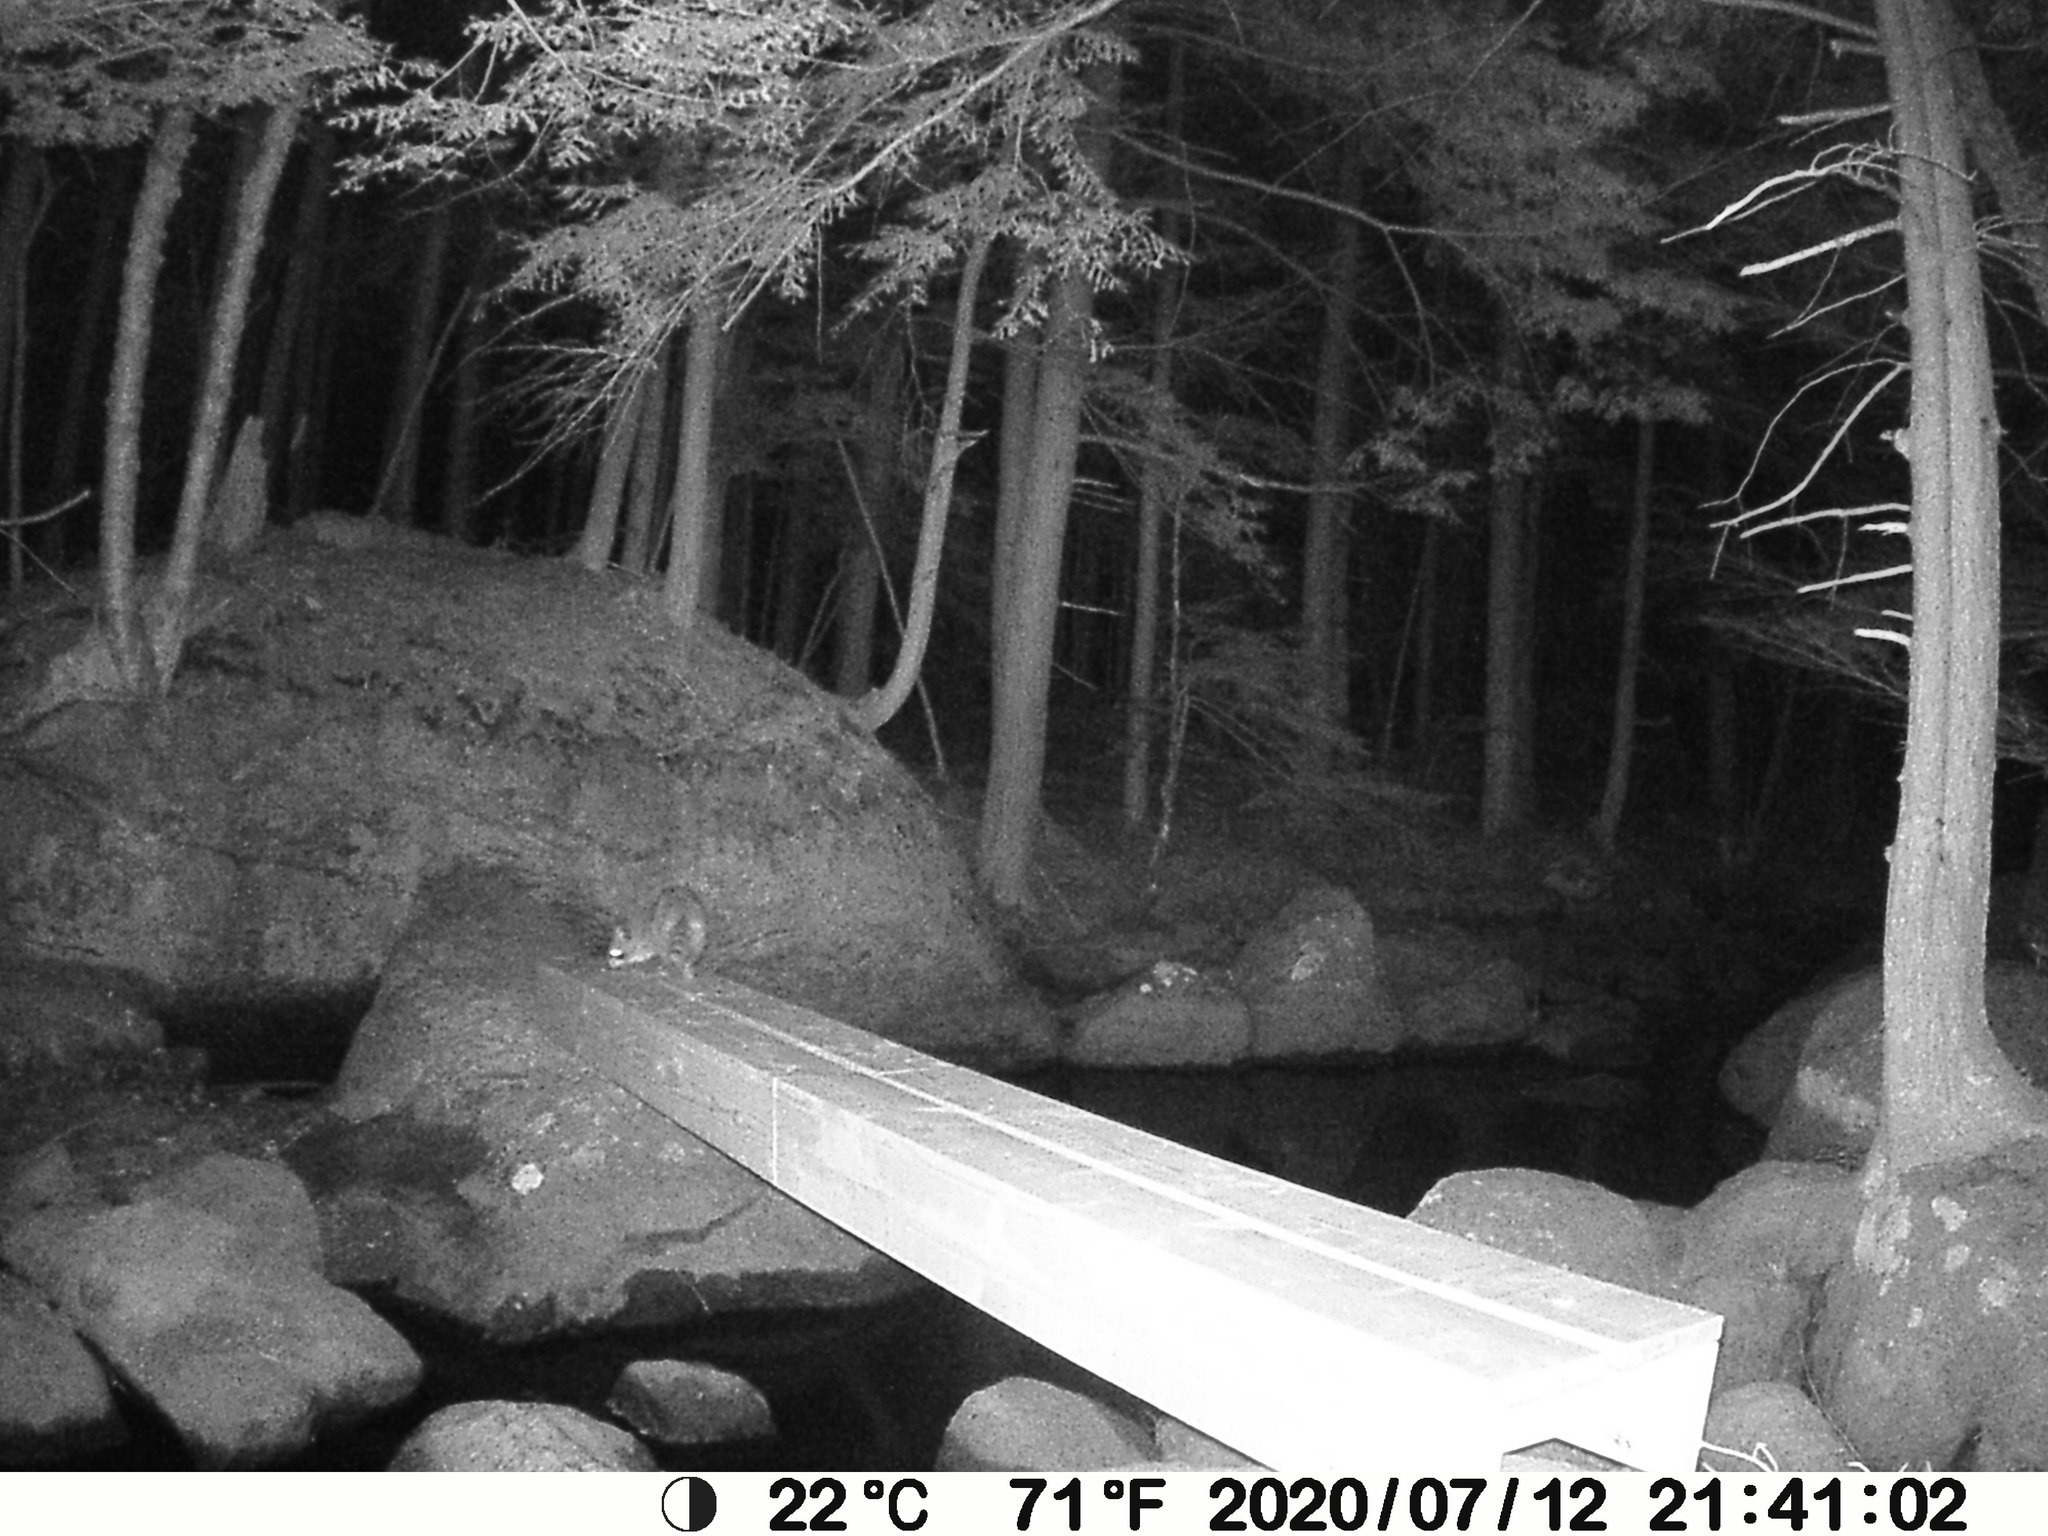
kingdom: Animalia
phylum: Chordata
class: Mammalia
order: Carnivora
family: Procyonidae
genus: Procyon
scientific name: Procyon lotor
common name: Raccoon
